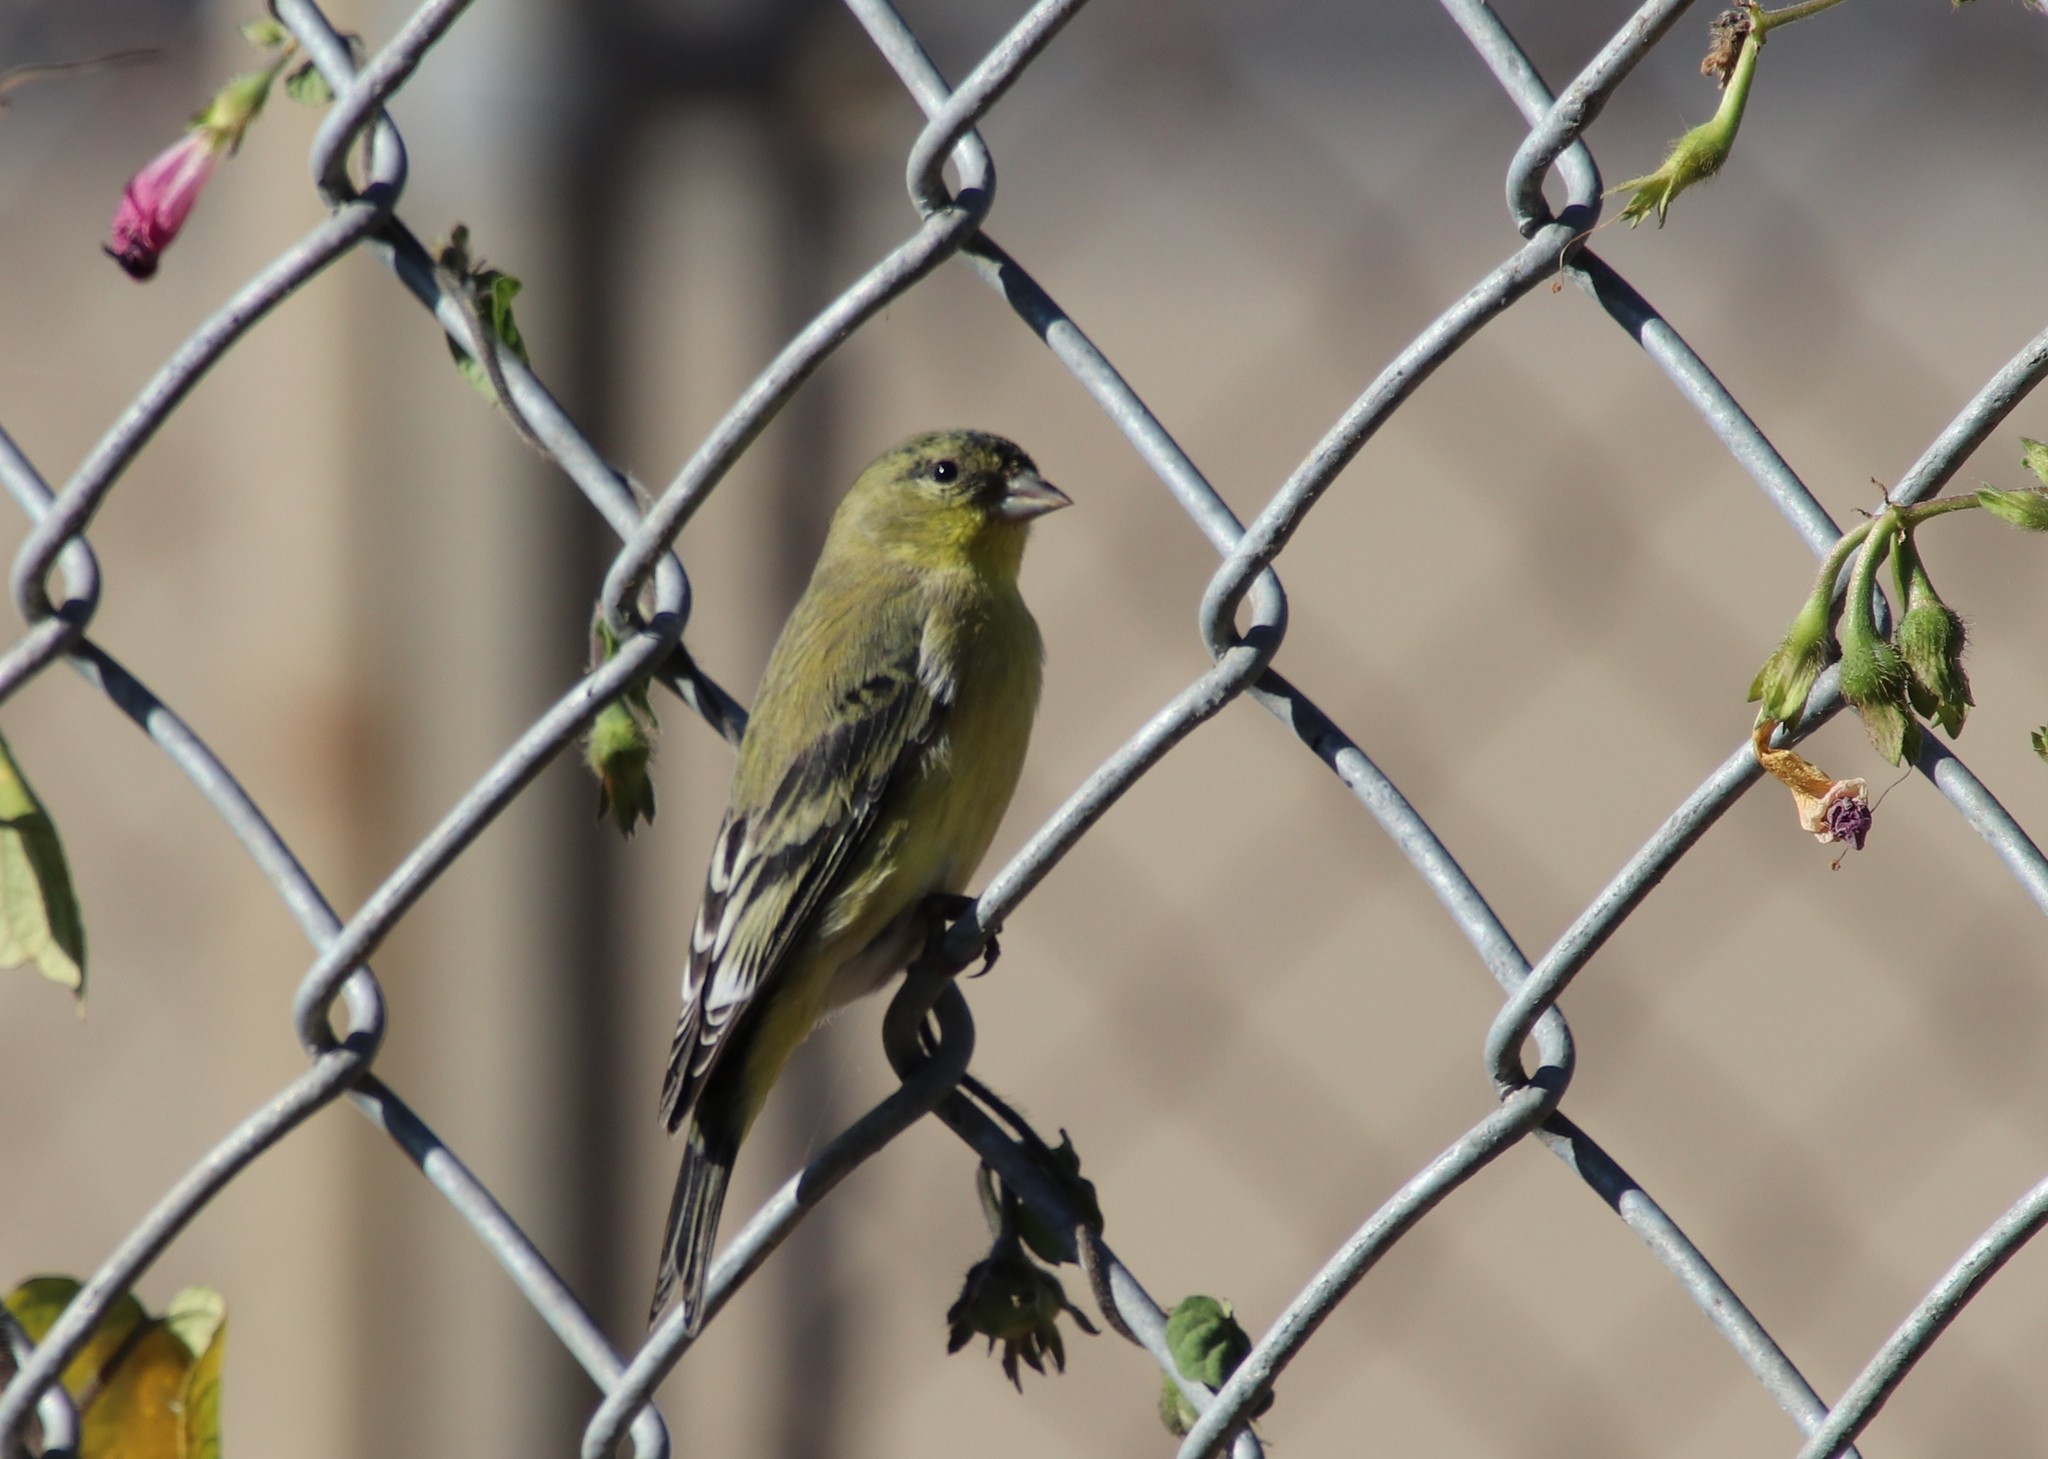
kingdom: Animalia
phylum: Chordata
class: Aves
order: Passeriformes
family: Fringillidae
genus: Spinus
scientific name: Spinus psaltria
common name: Lesser goldfinch
